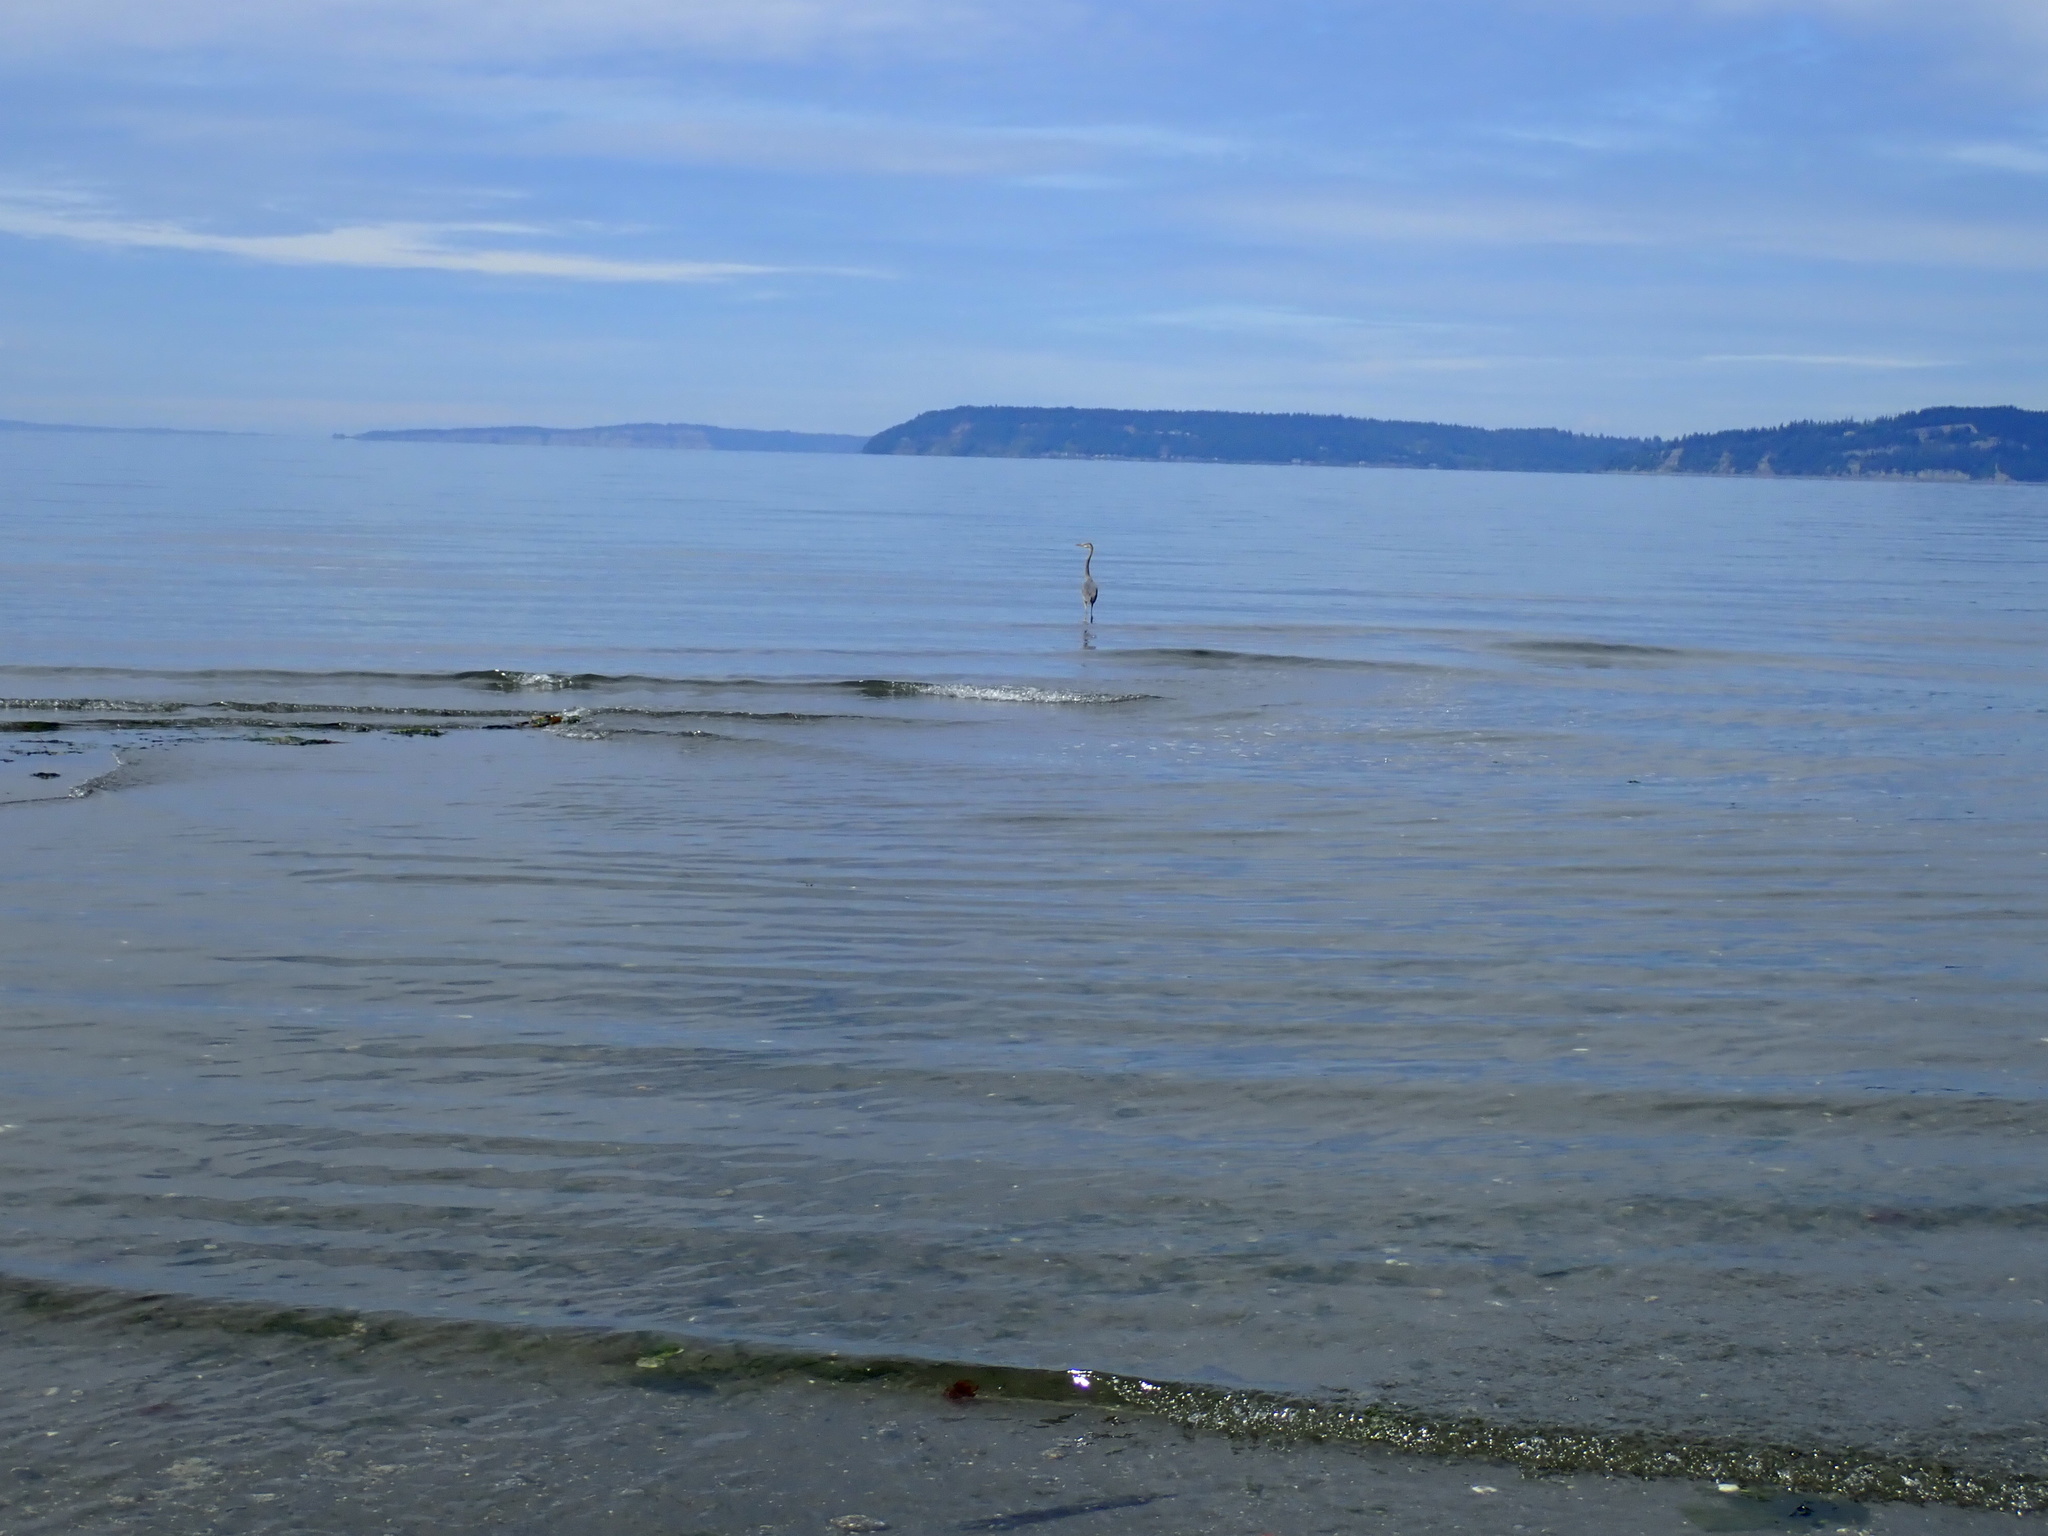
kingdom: Animalia
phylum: Chordata
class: Aves
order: Pelecaniformes
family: Ardeidae
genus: Ardea
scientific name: Ardea herodias
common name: Great blue heron
